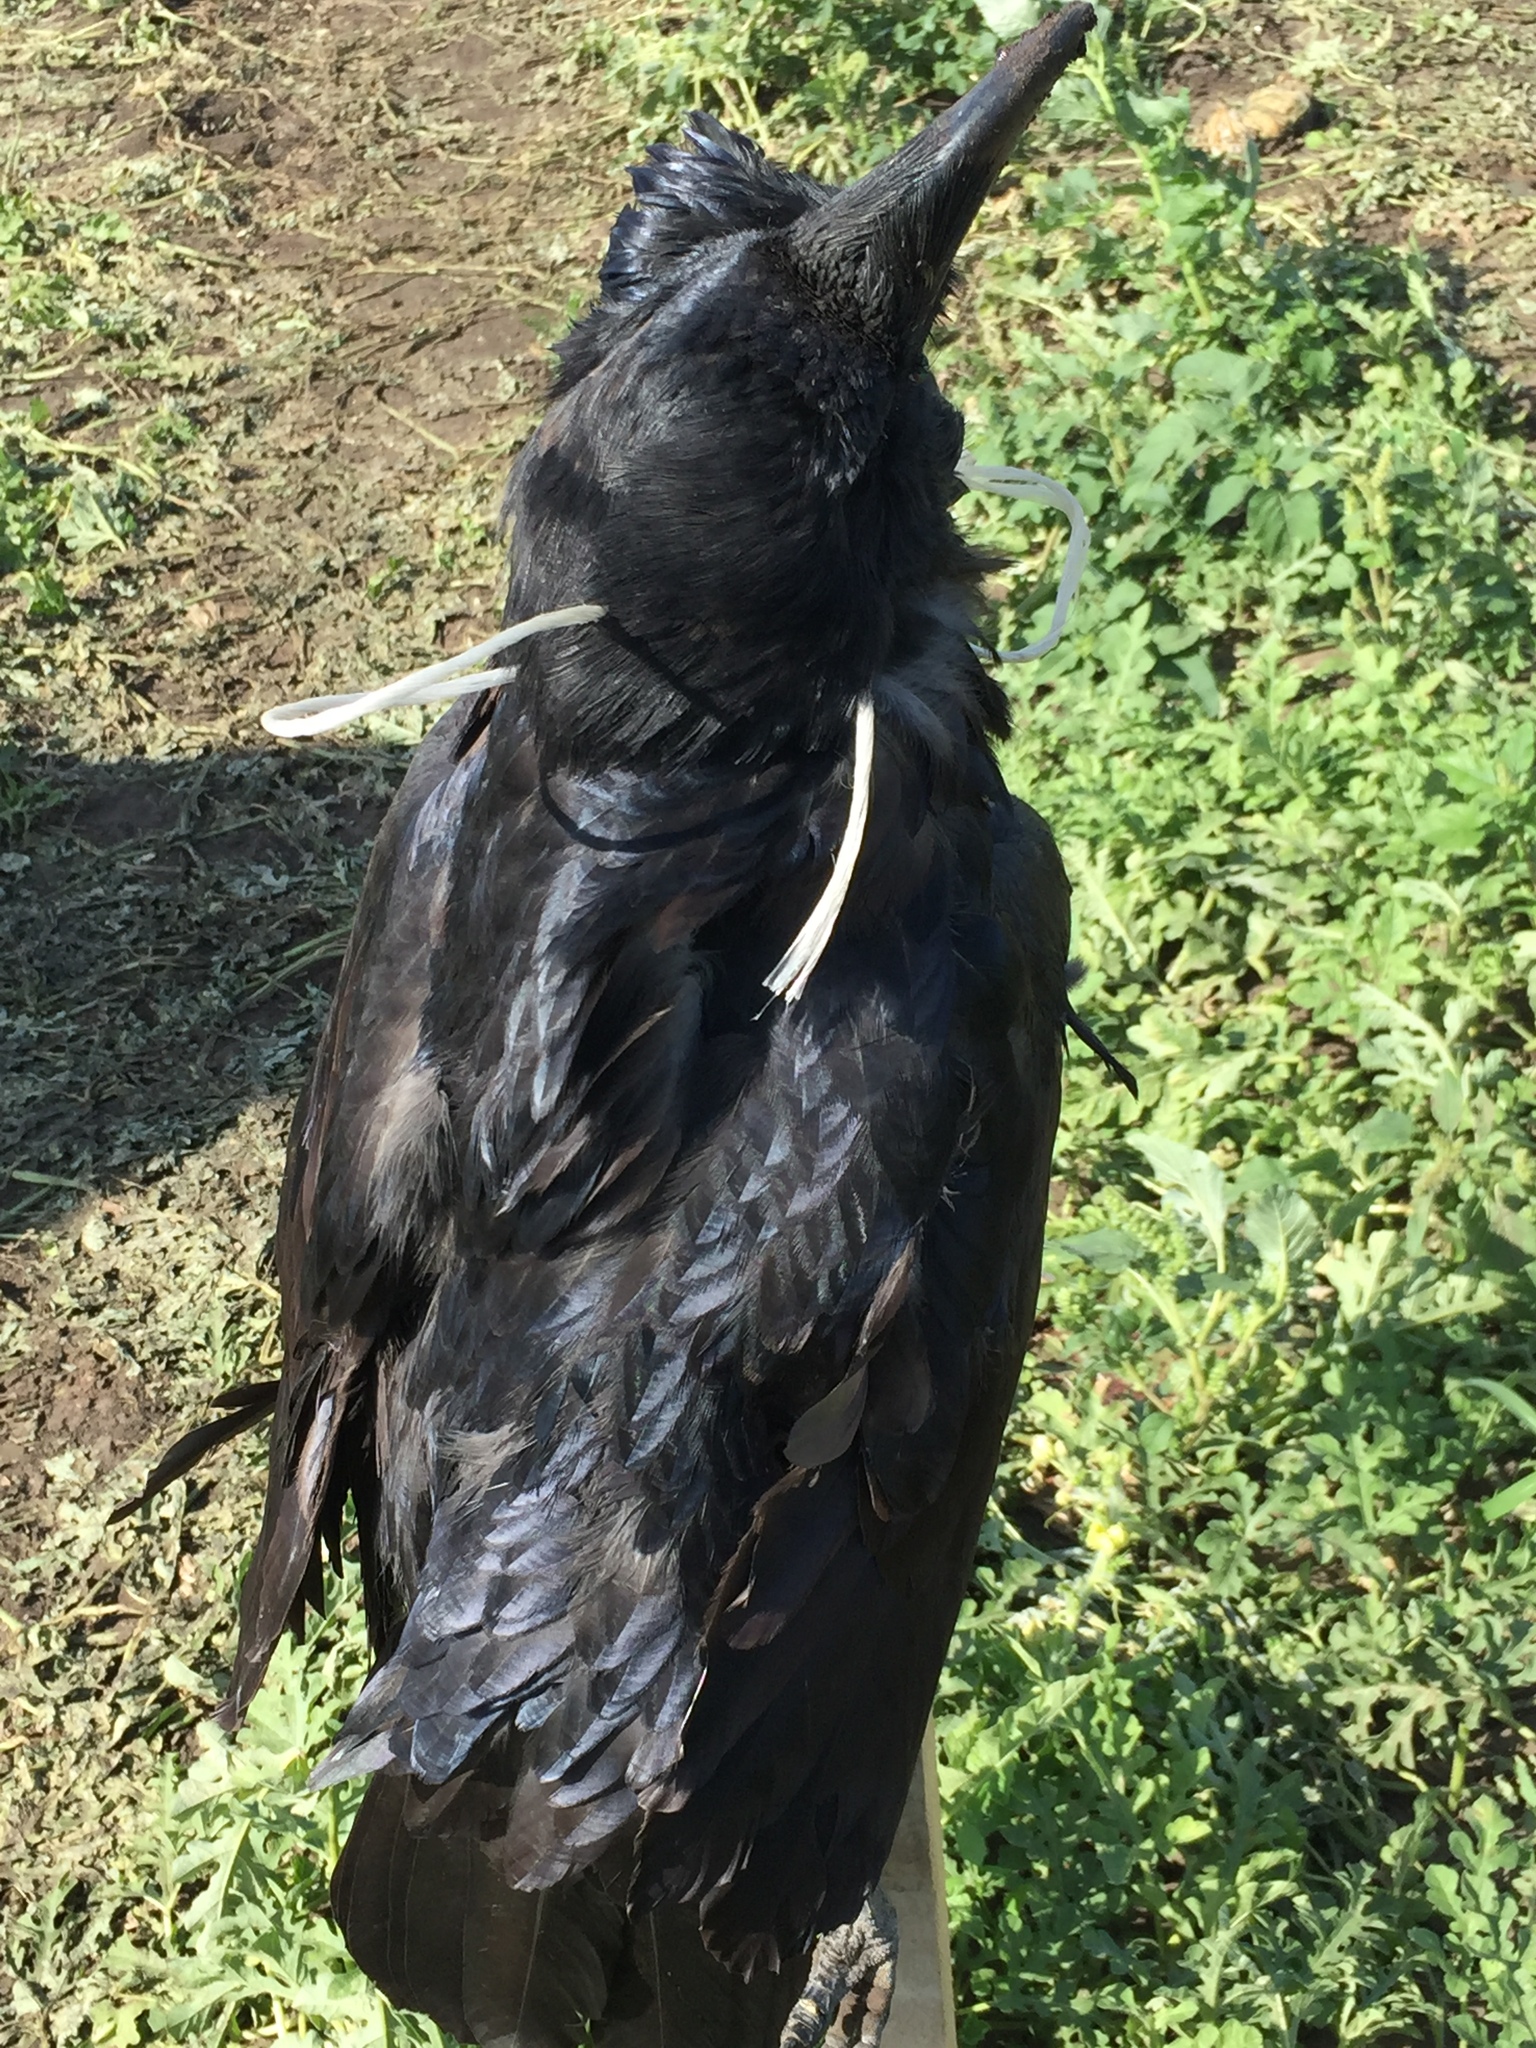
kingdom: Animalia
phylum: Chordata
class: Aves
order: Passeriformes
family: Corvidae
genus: Corvus
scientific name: Corvus corax
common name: Common raven
